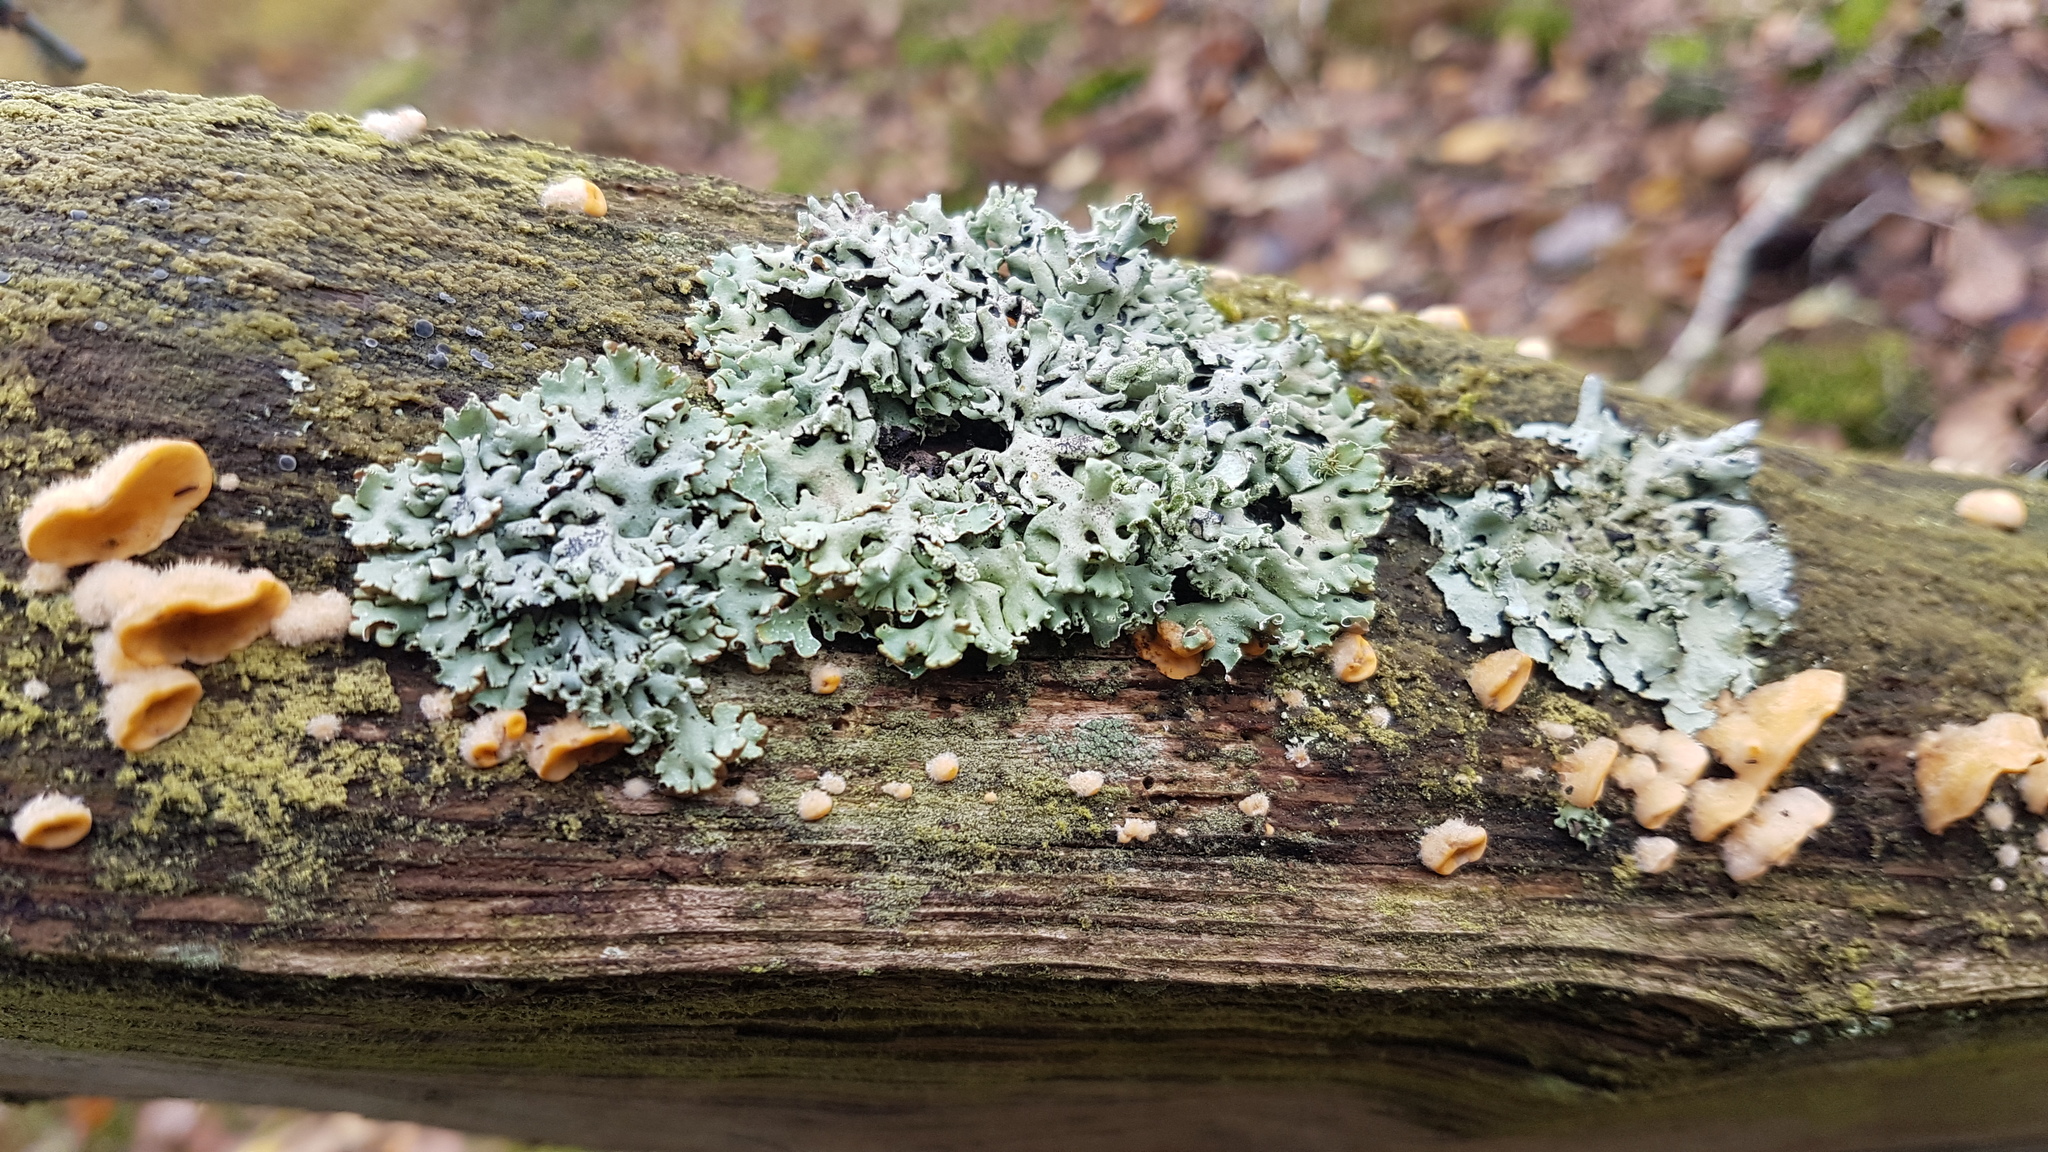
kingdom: Fungi
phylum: Ascomycota
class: Lecanoromycetes
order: Lecanorales
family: Parmeliaceae
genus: Hypogymnia
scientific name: Hypogymnia physodes
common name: Dark crottle
